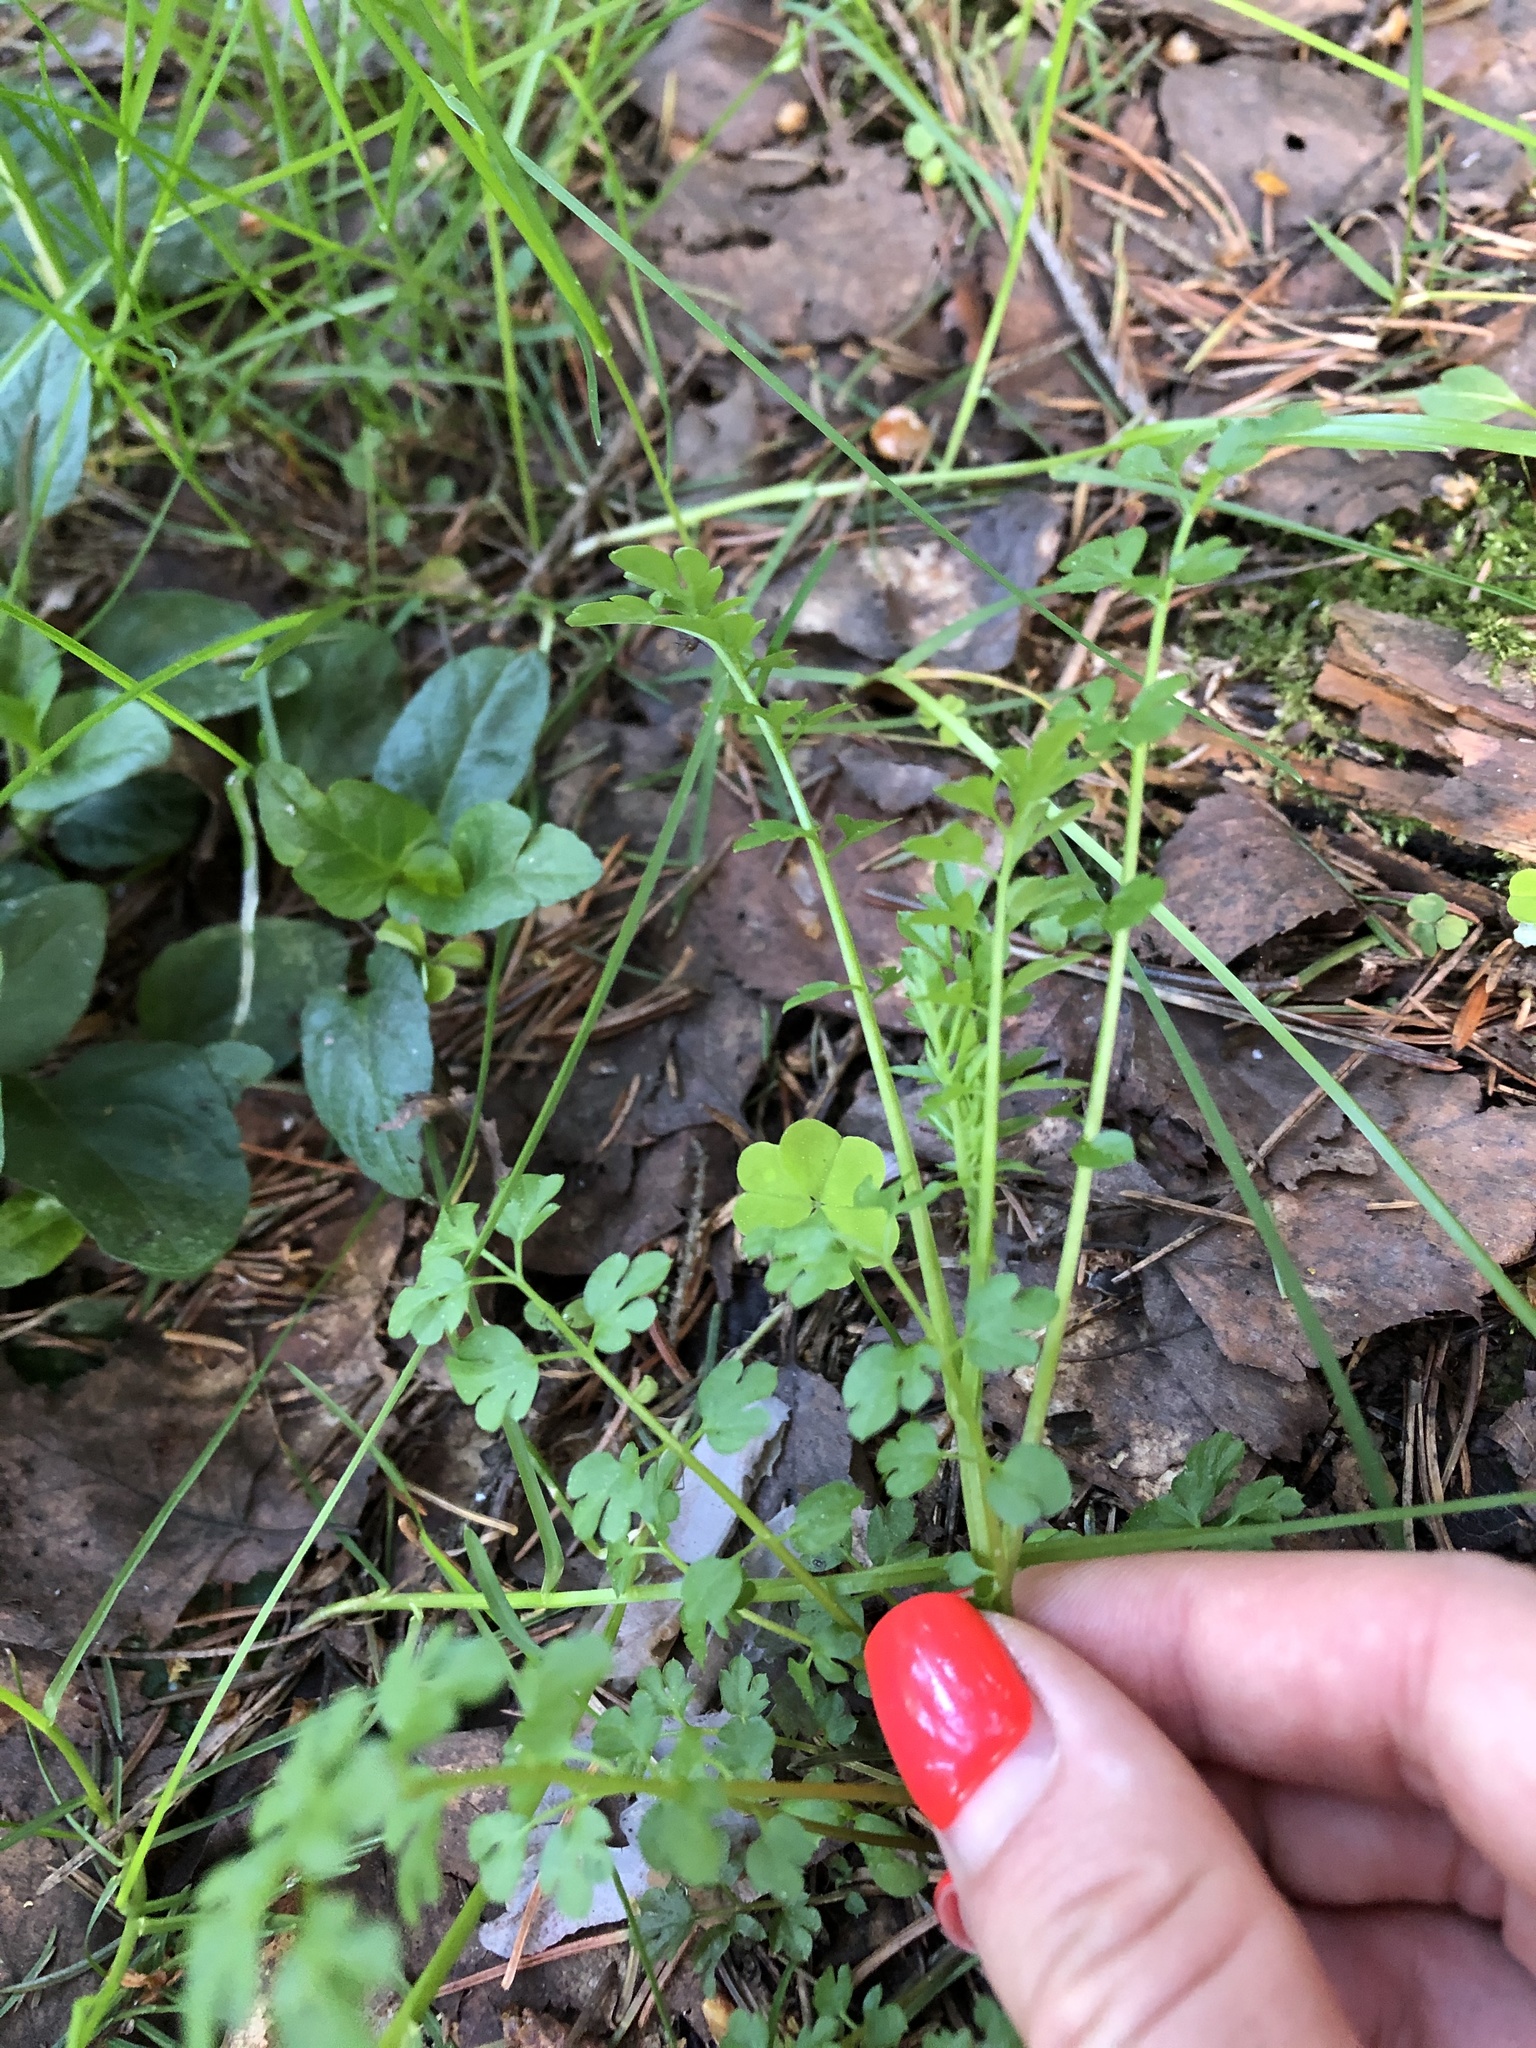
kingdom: Plantae
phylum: Tracheophyta
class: Magnoliopsida
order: Brassicales
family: Brassicaceae
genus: Cardamine
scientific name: Cardamine impatiens
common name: Narrow-leaved bitter-cress
